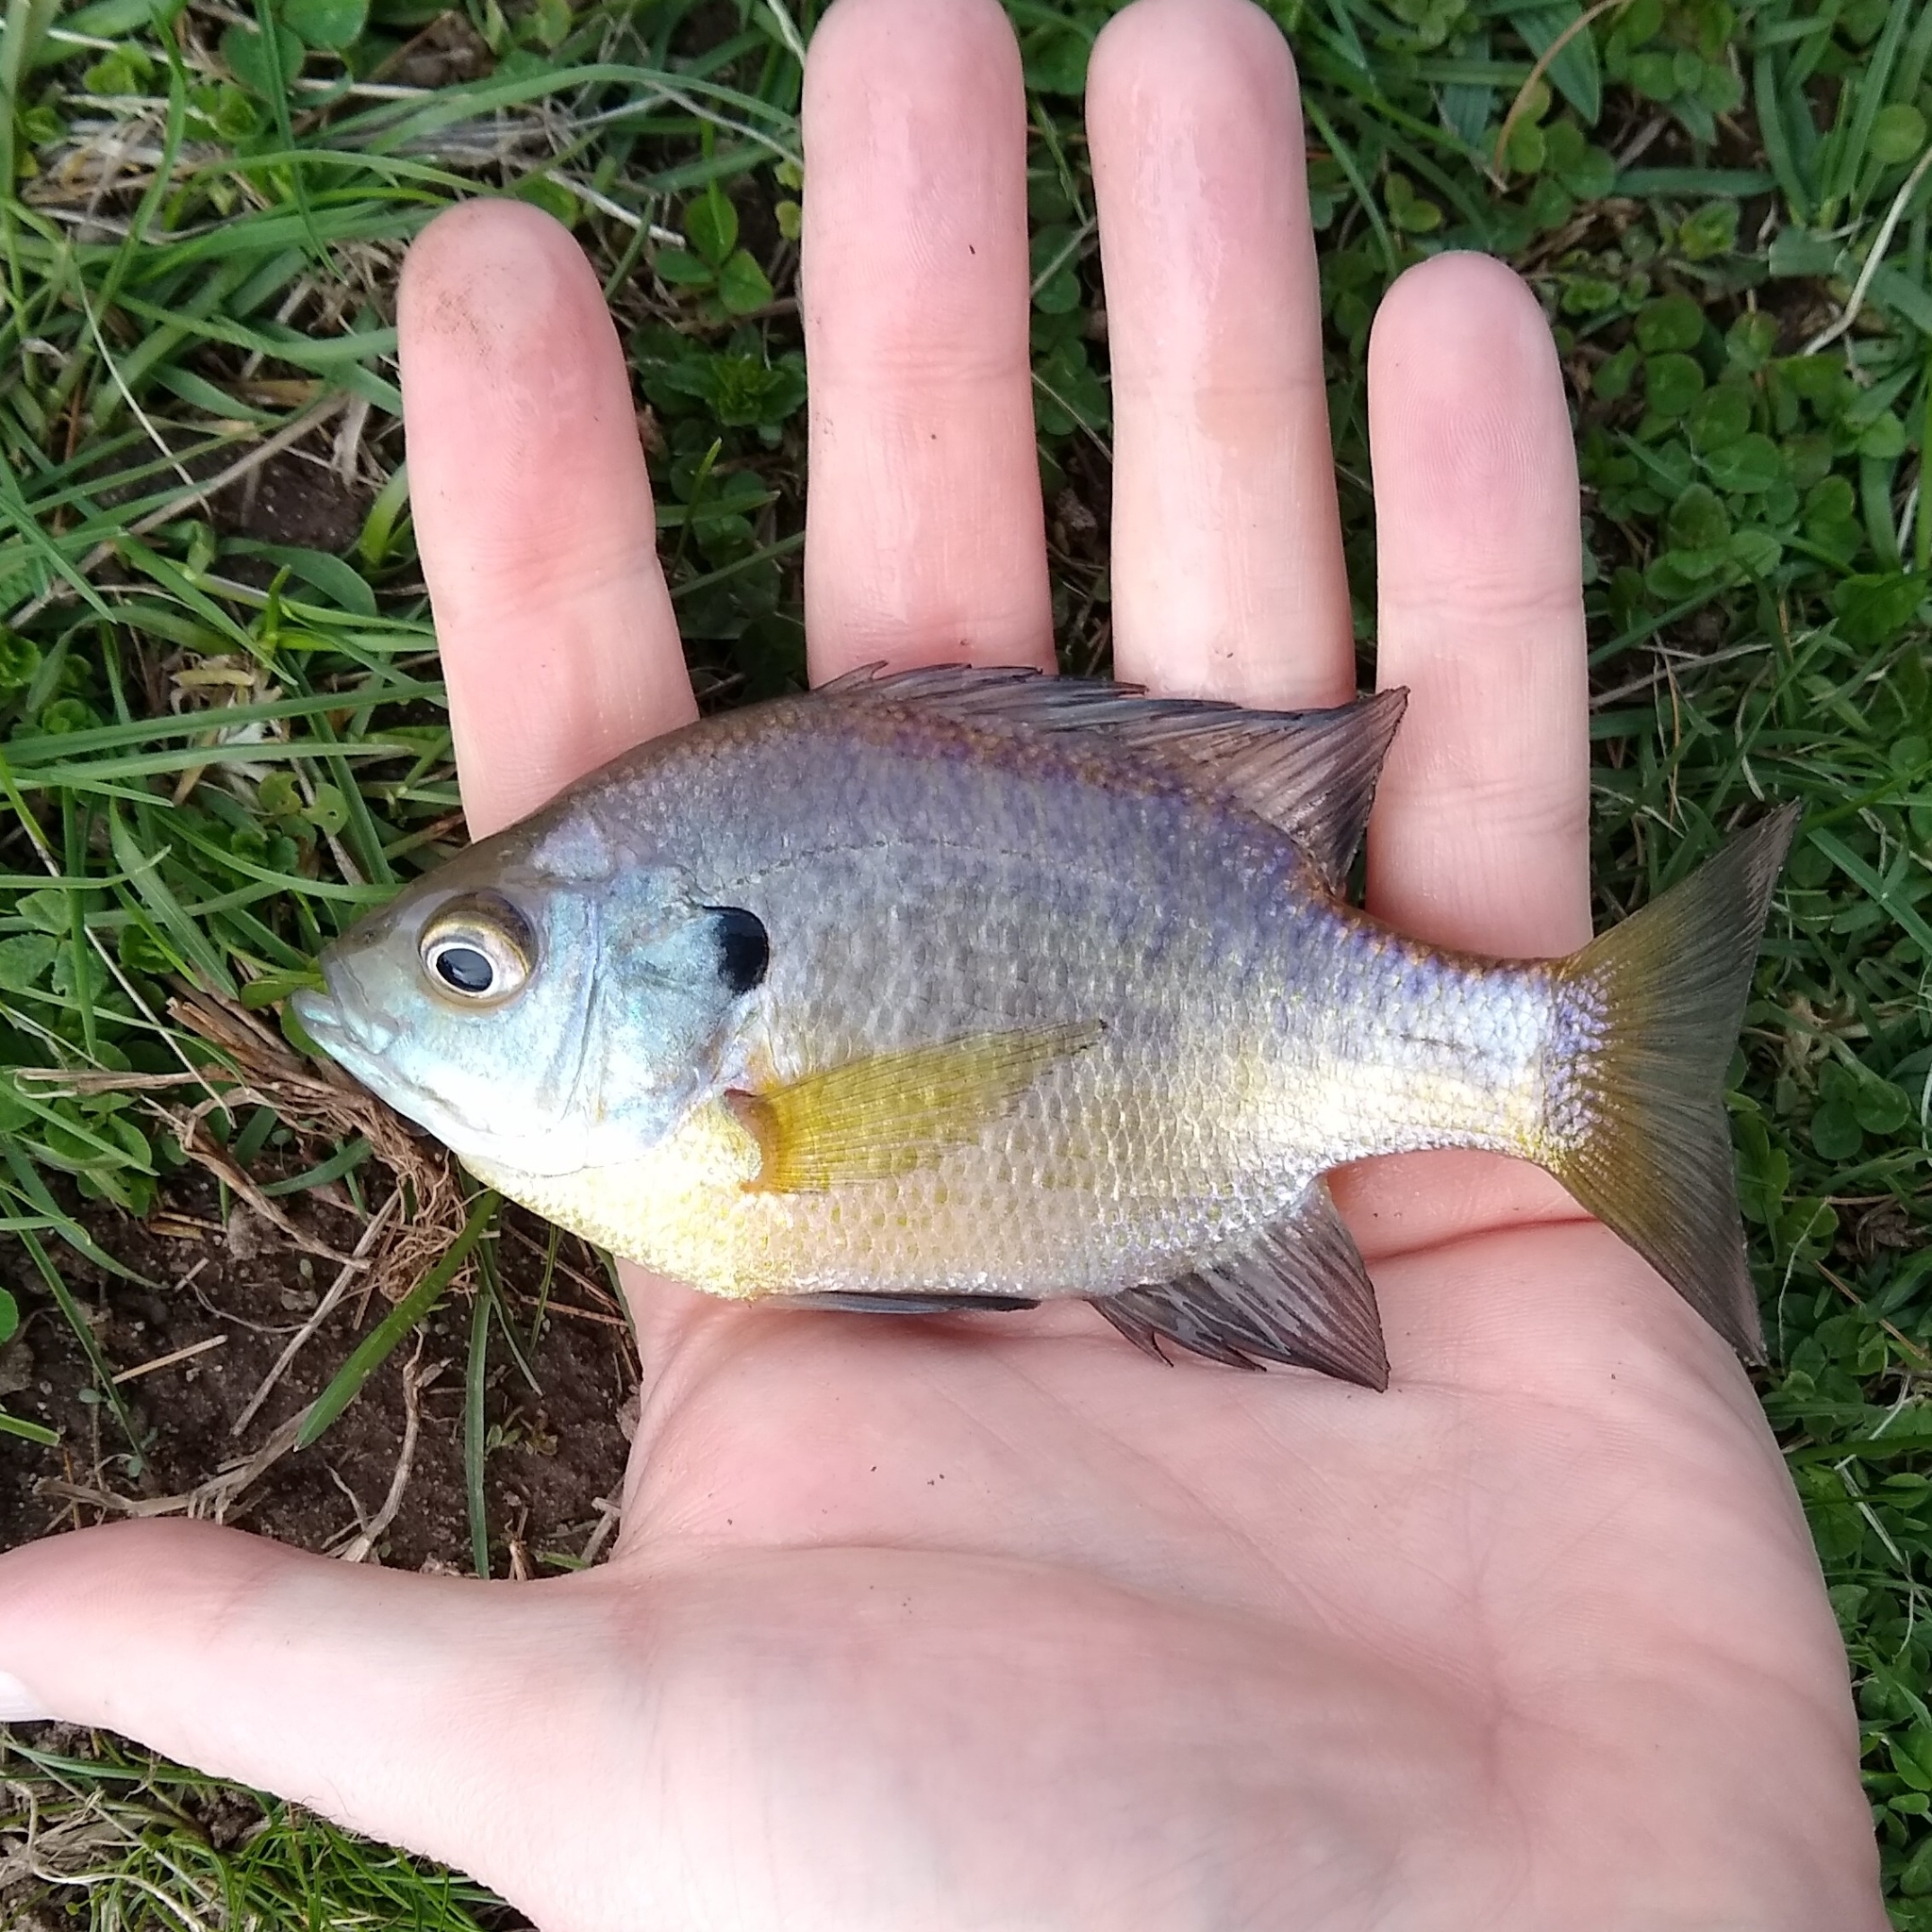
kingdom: Animalia
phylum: Chordata
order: Perciformes
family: Centrarchidae
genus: Lepomis
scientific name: Lepomis macrochirus
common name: Bluegill
